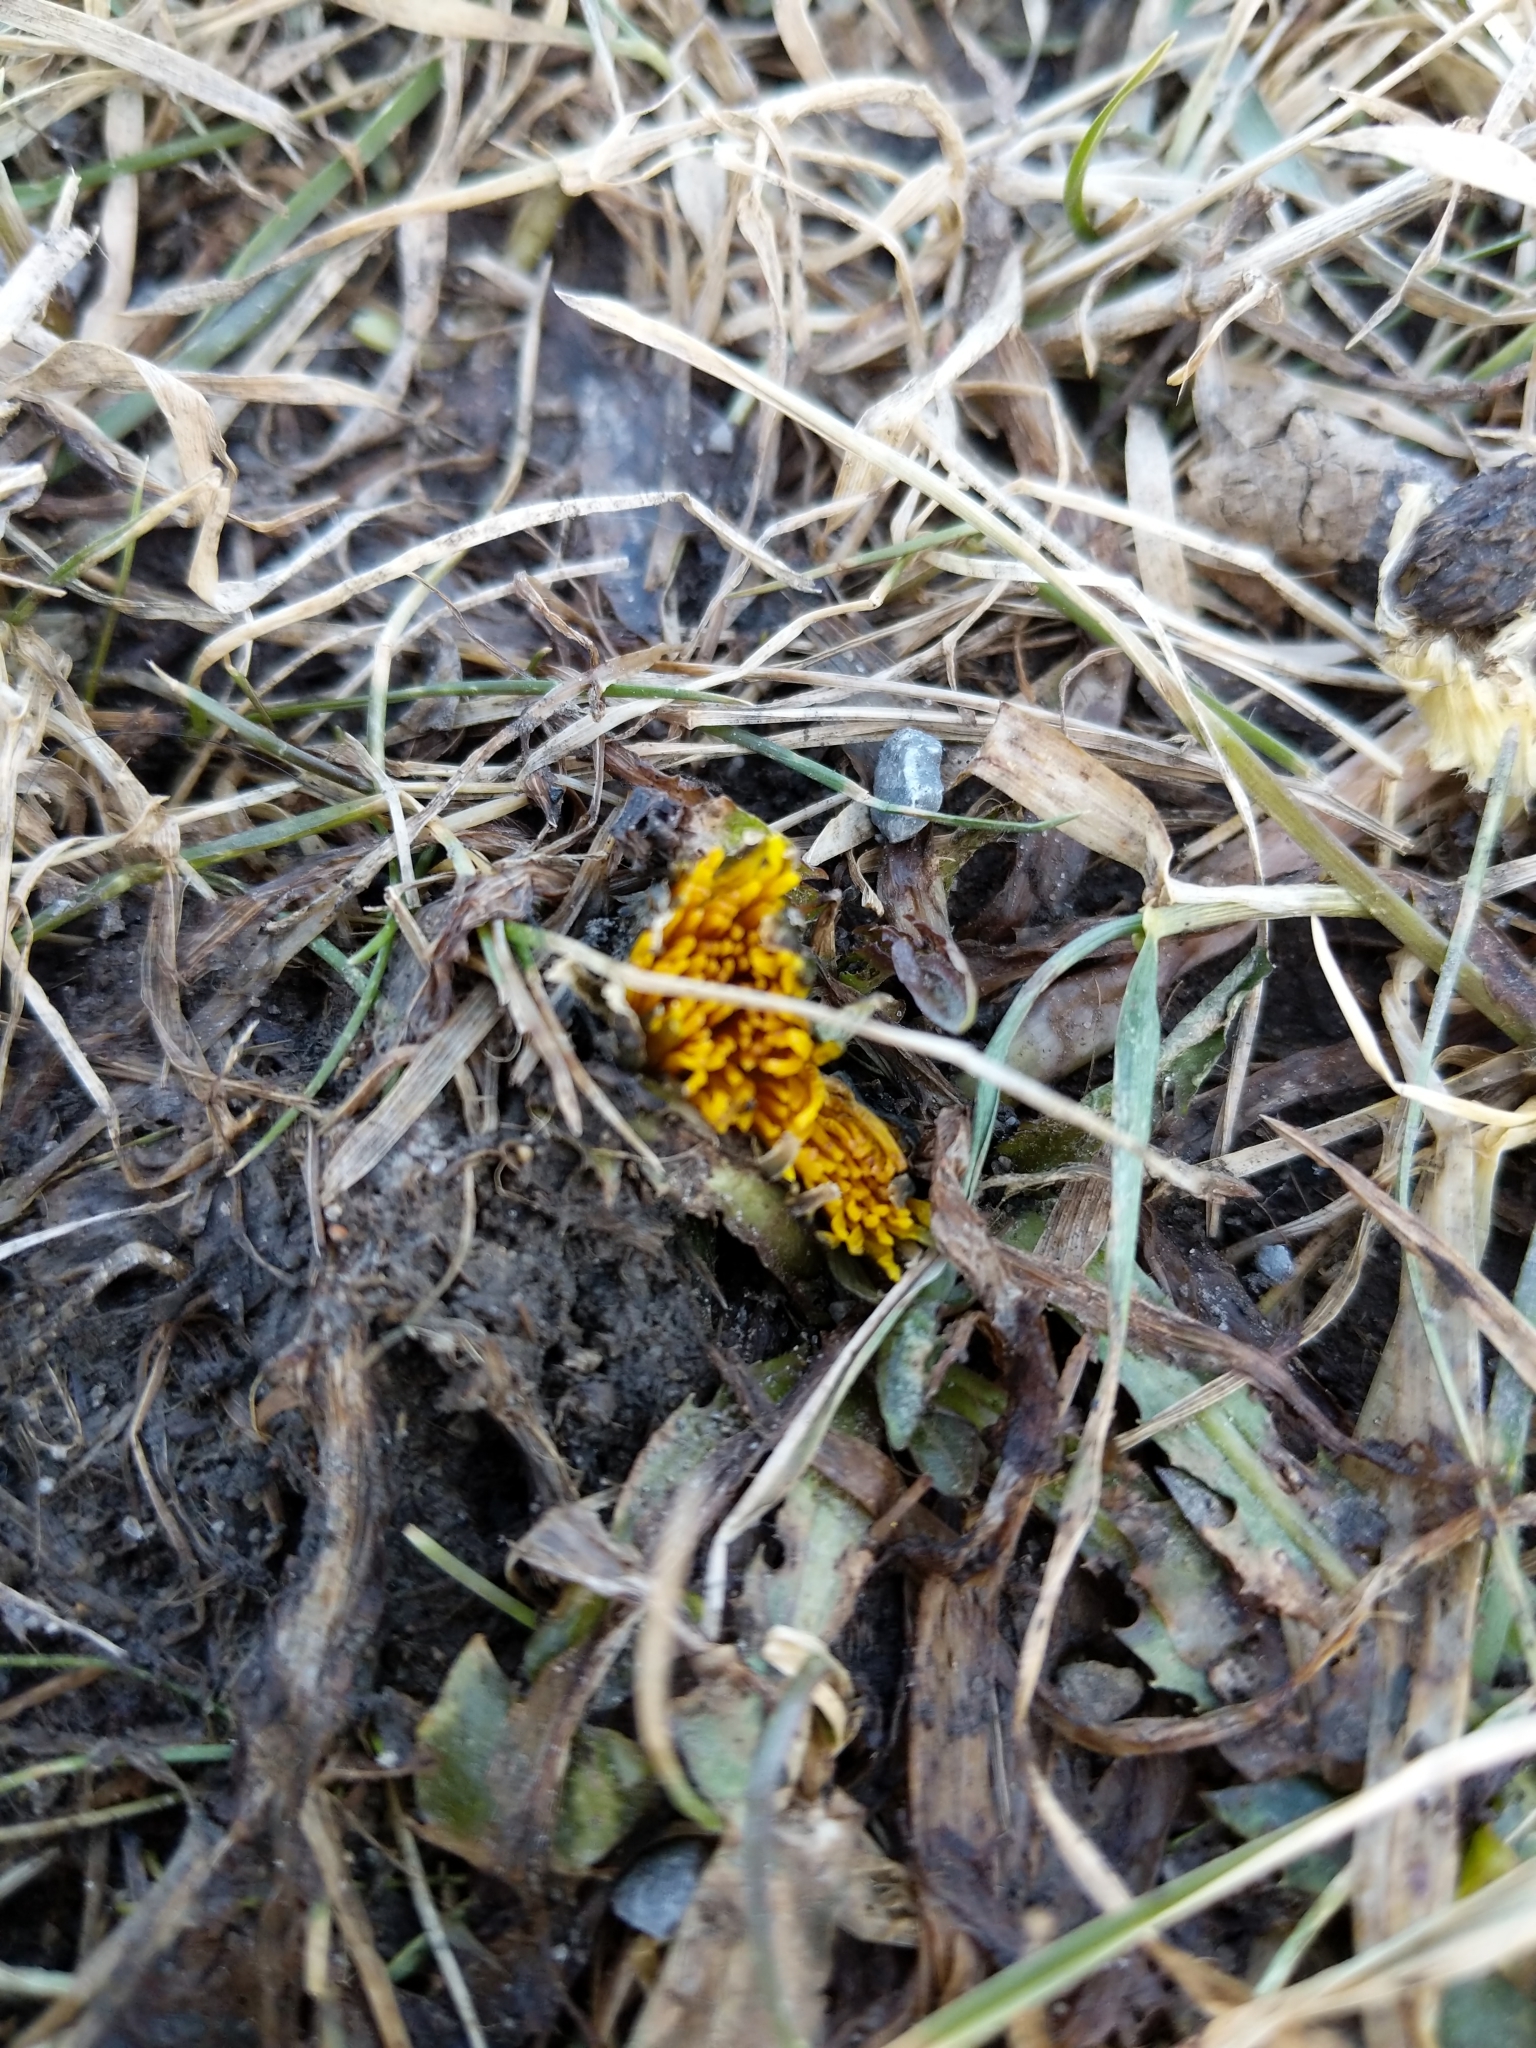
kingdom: Plantae
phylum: Tracheophyta
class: Magnoliopsida
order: Asterales
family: Asteraceae
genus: Taraxacum
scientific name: Taraxacum officinale
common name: Common dandelion
